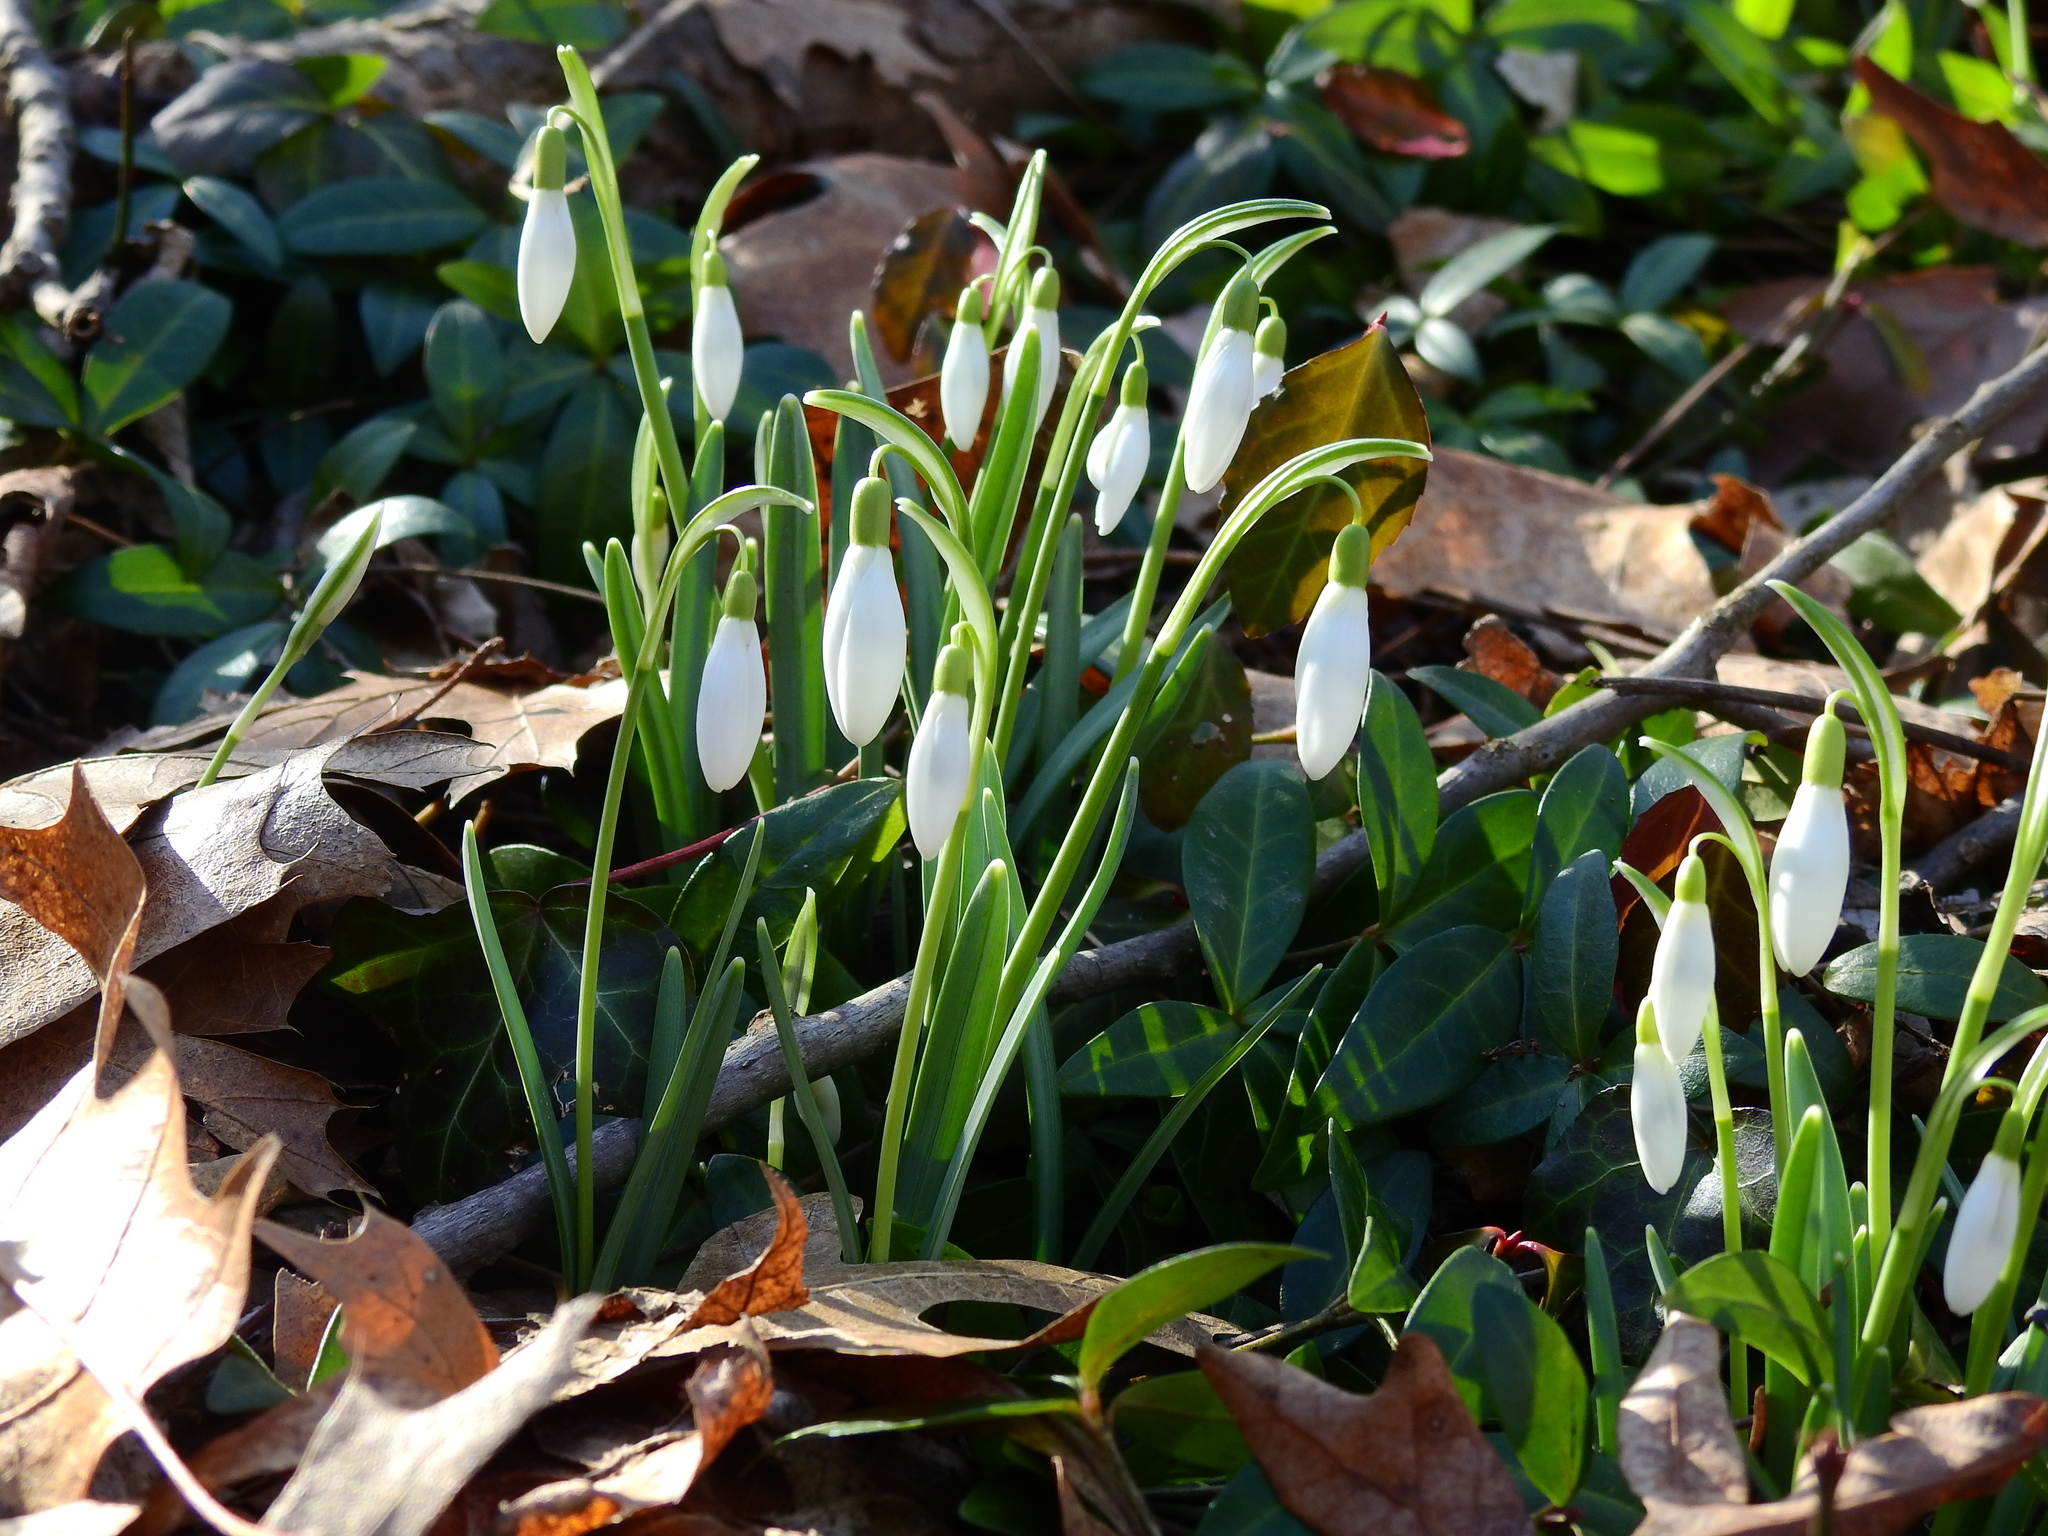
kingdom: Plantae
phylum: Tracheophyta
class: Liliopsida
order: Asparagales
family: Amaryllidaceae
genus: Galanthus
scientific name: Galanthus nivalis
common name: Snowdrop
